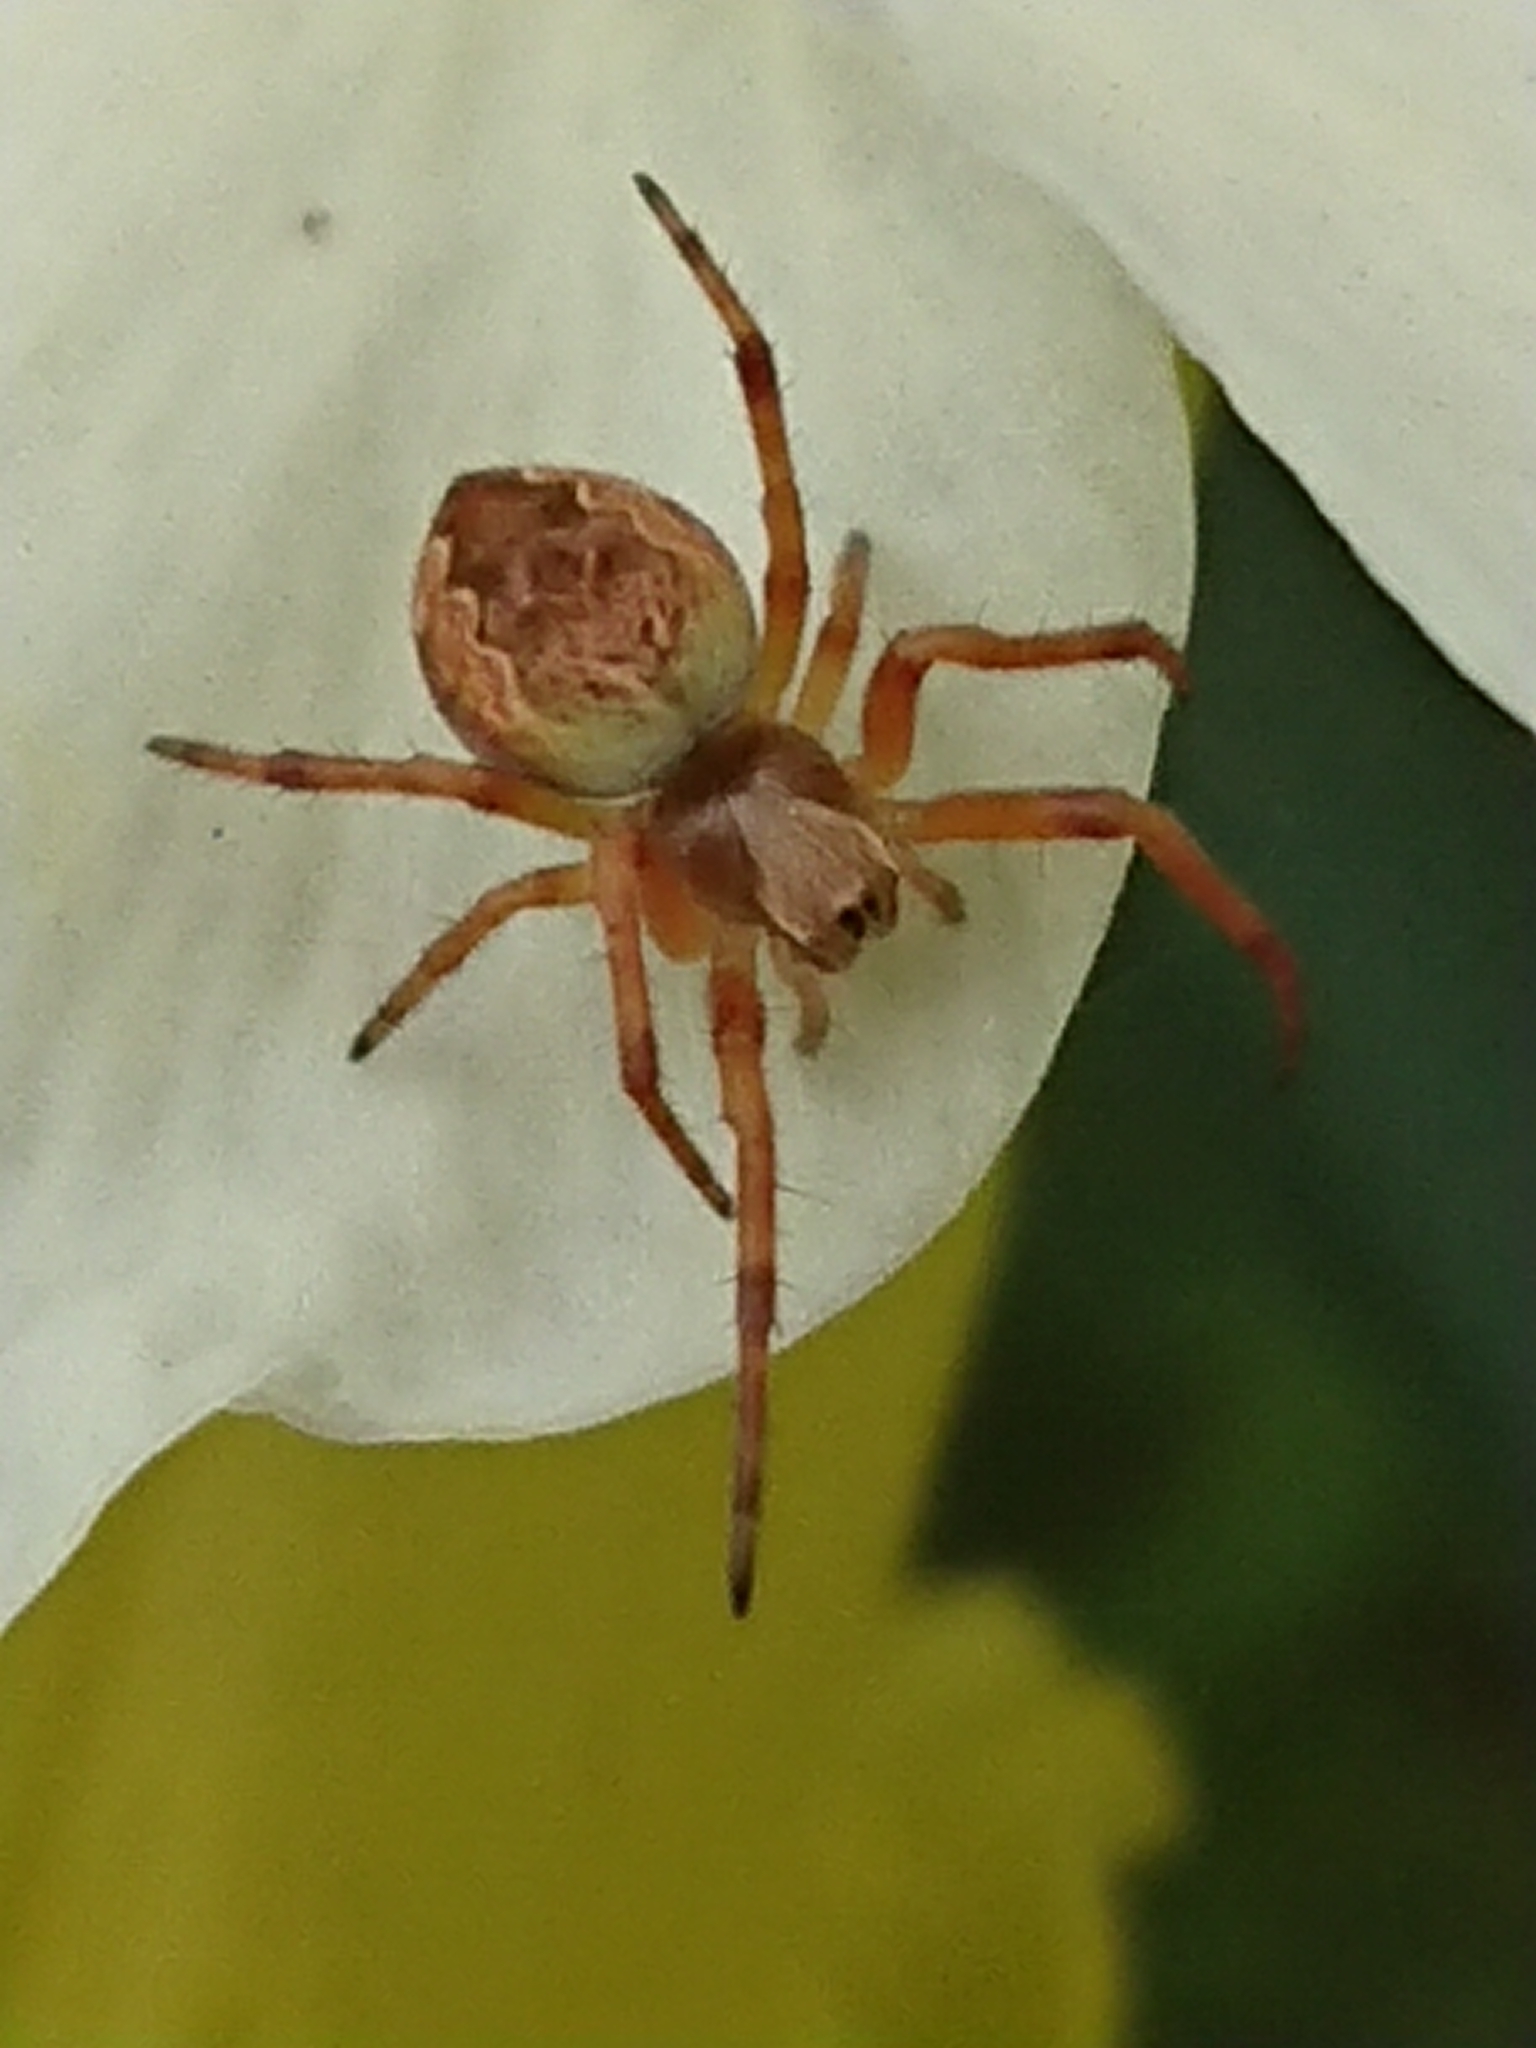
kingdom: Animalia
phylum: Arthropoda
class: Arachnida
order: Araneae
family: Araneidae
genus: Salsa
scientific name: Salsa fuliginata
